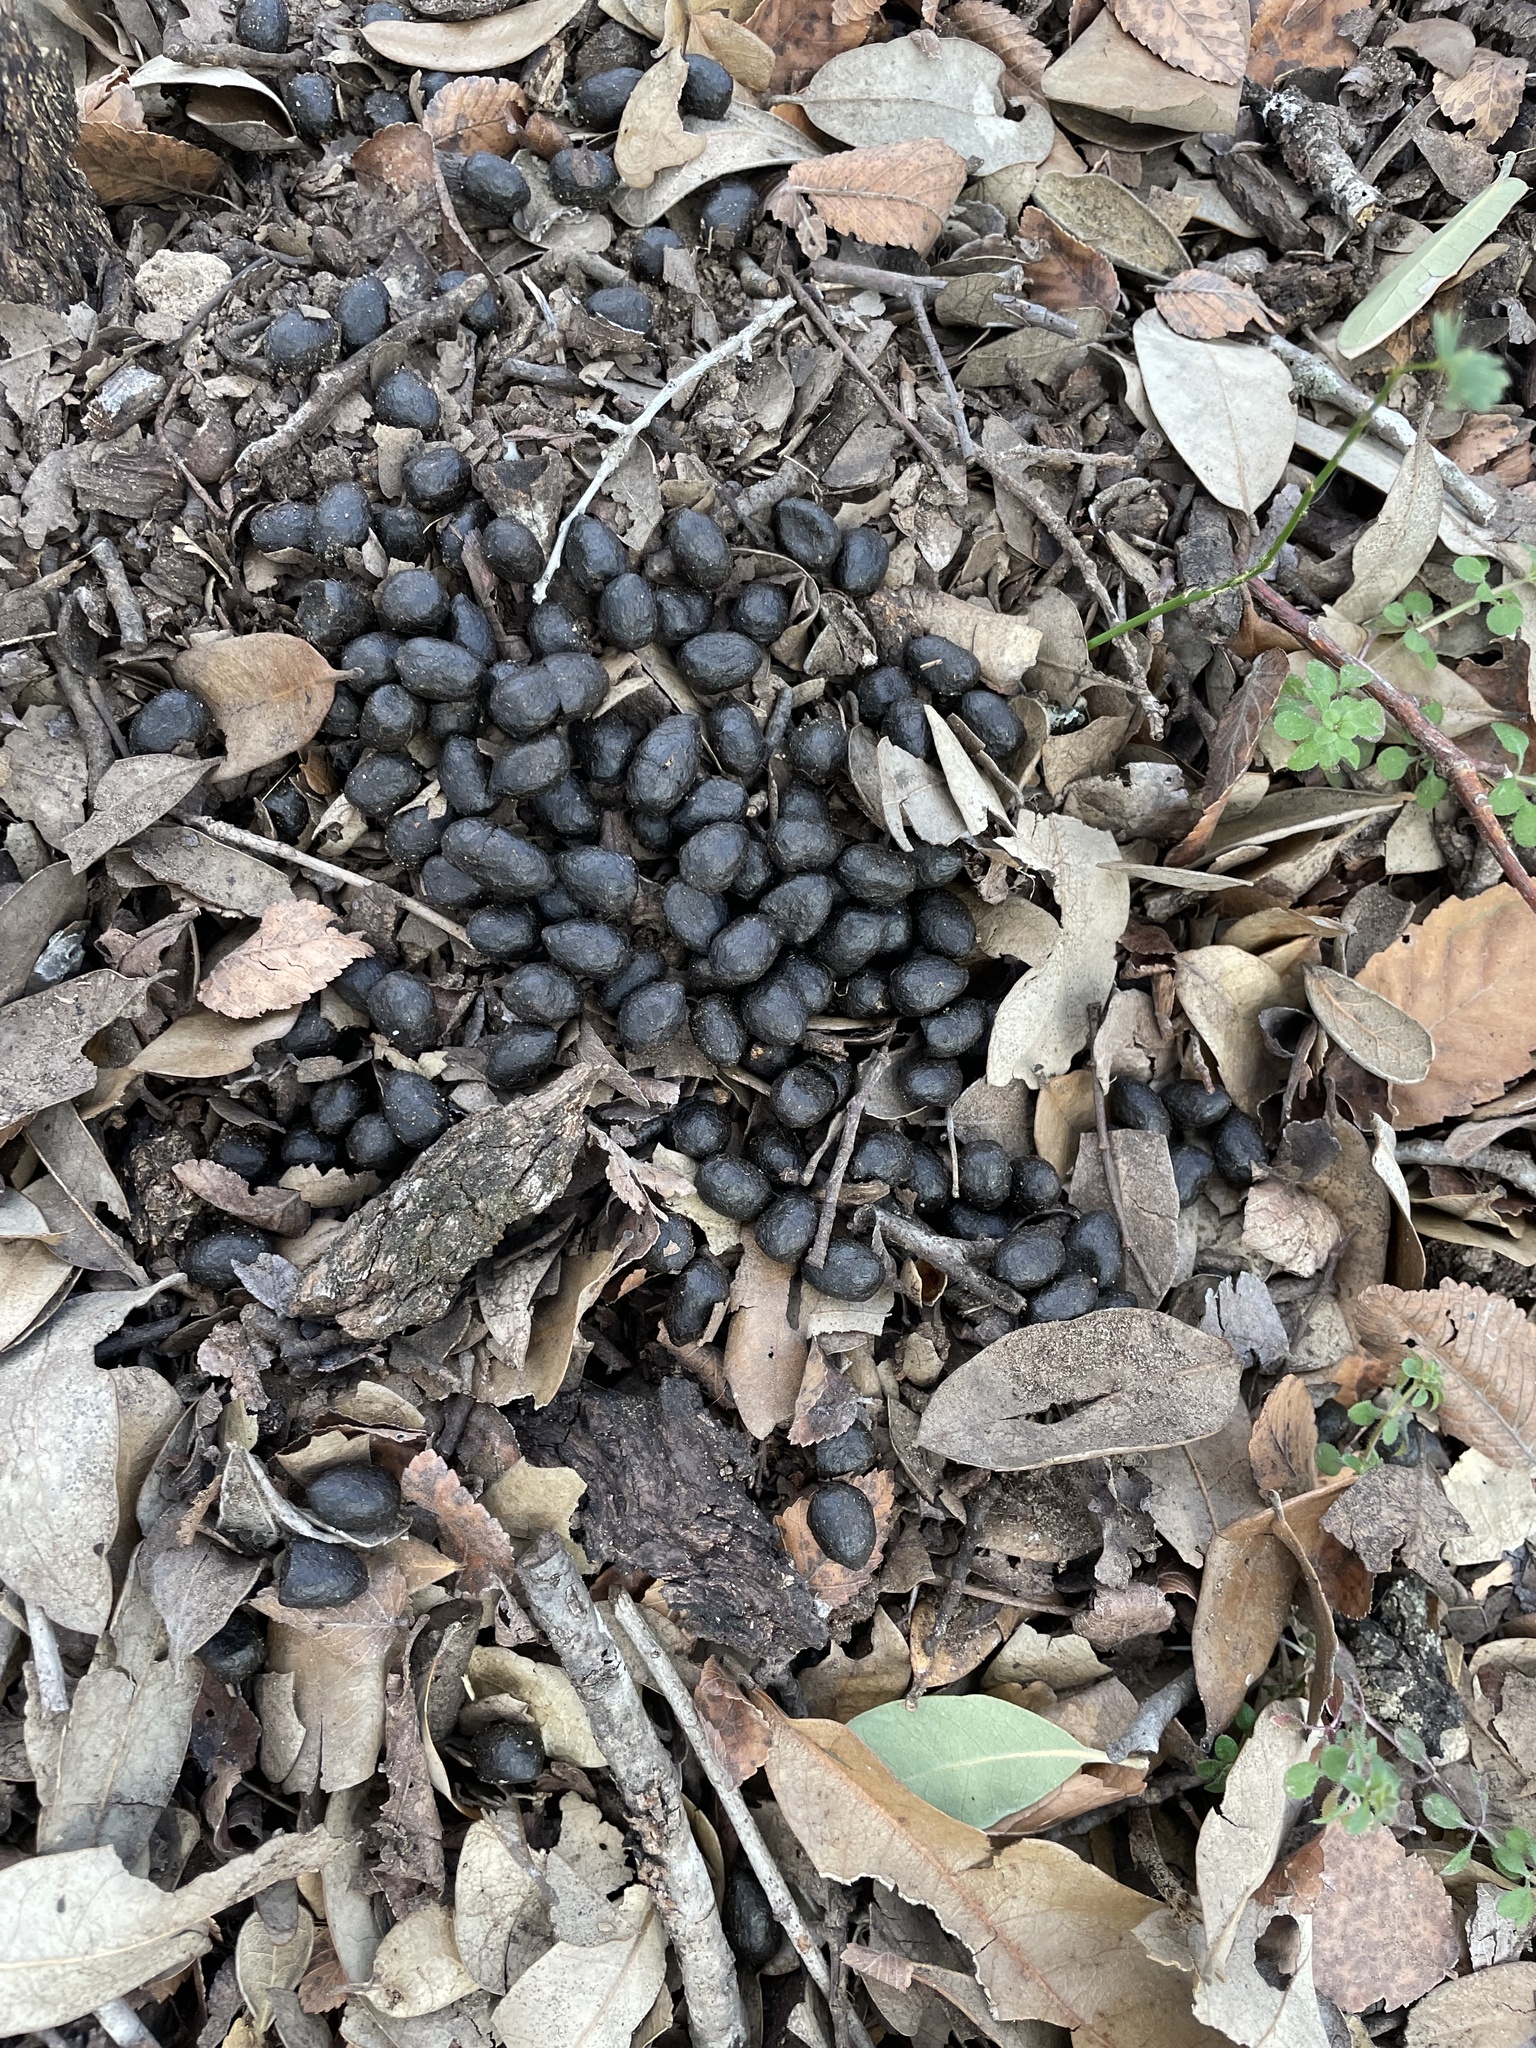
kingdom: Animalia
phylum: Chordata
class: Mammalia
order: Artiodactyla
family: Cervidae
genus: Odocoileus
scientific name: Odocoileus virginianus
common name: White-tailed deer
